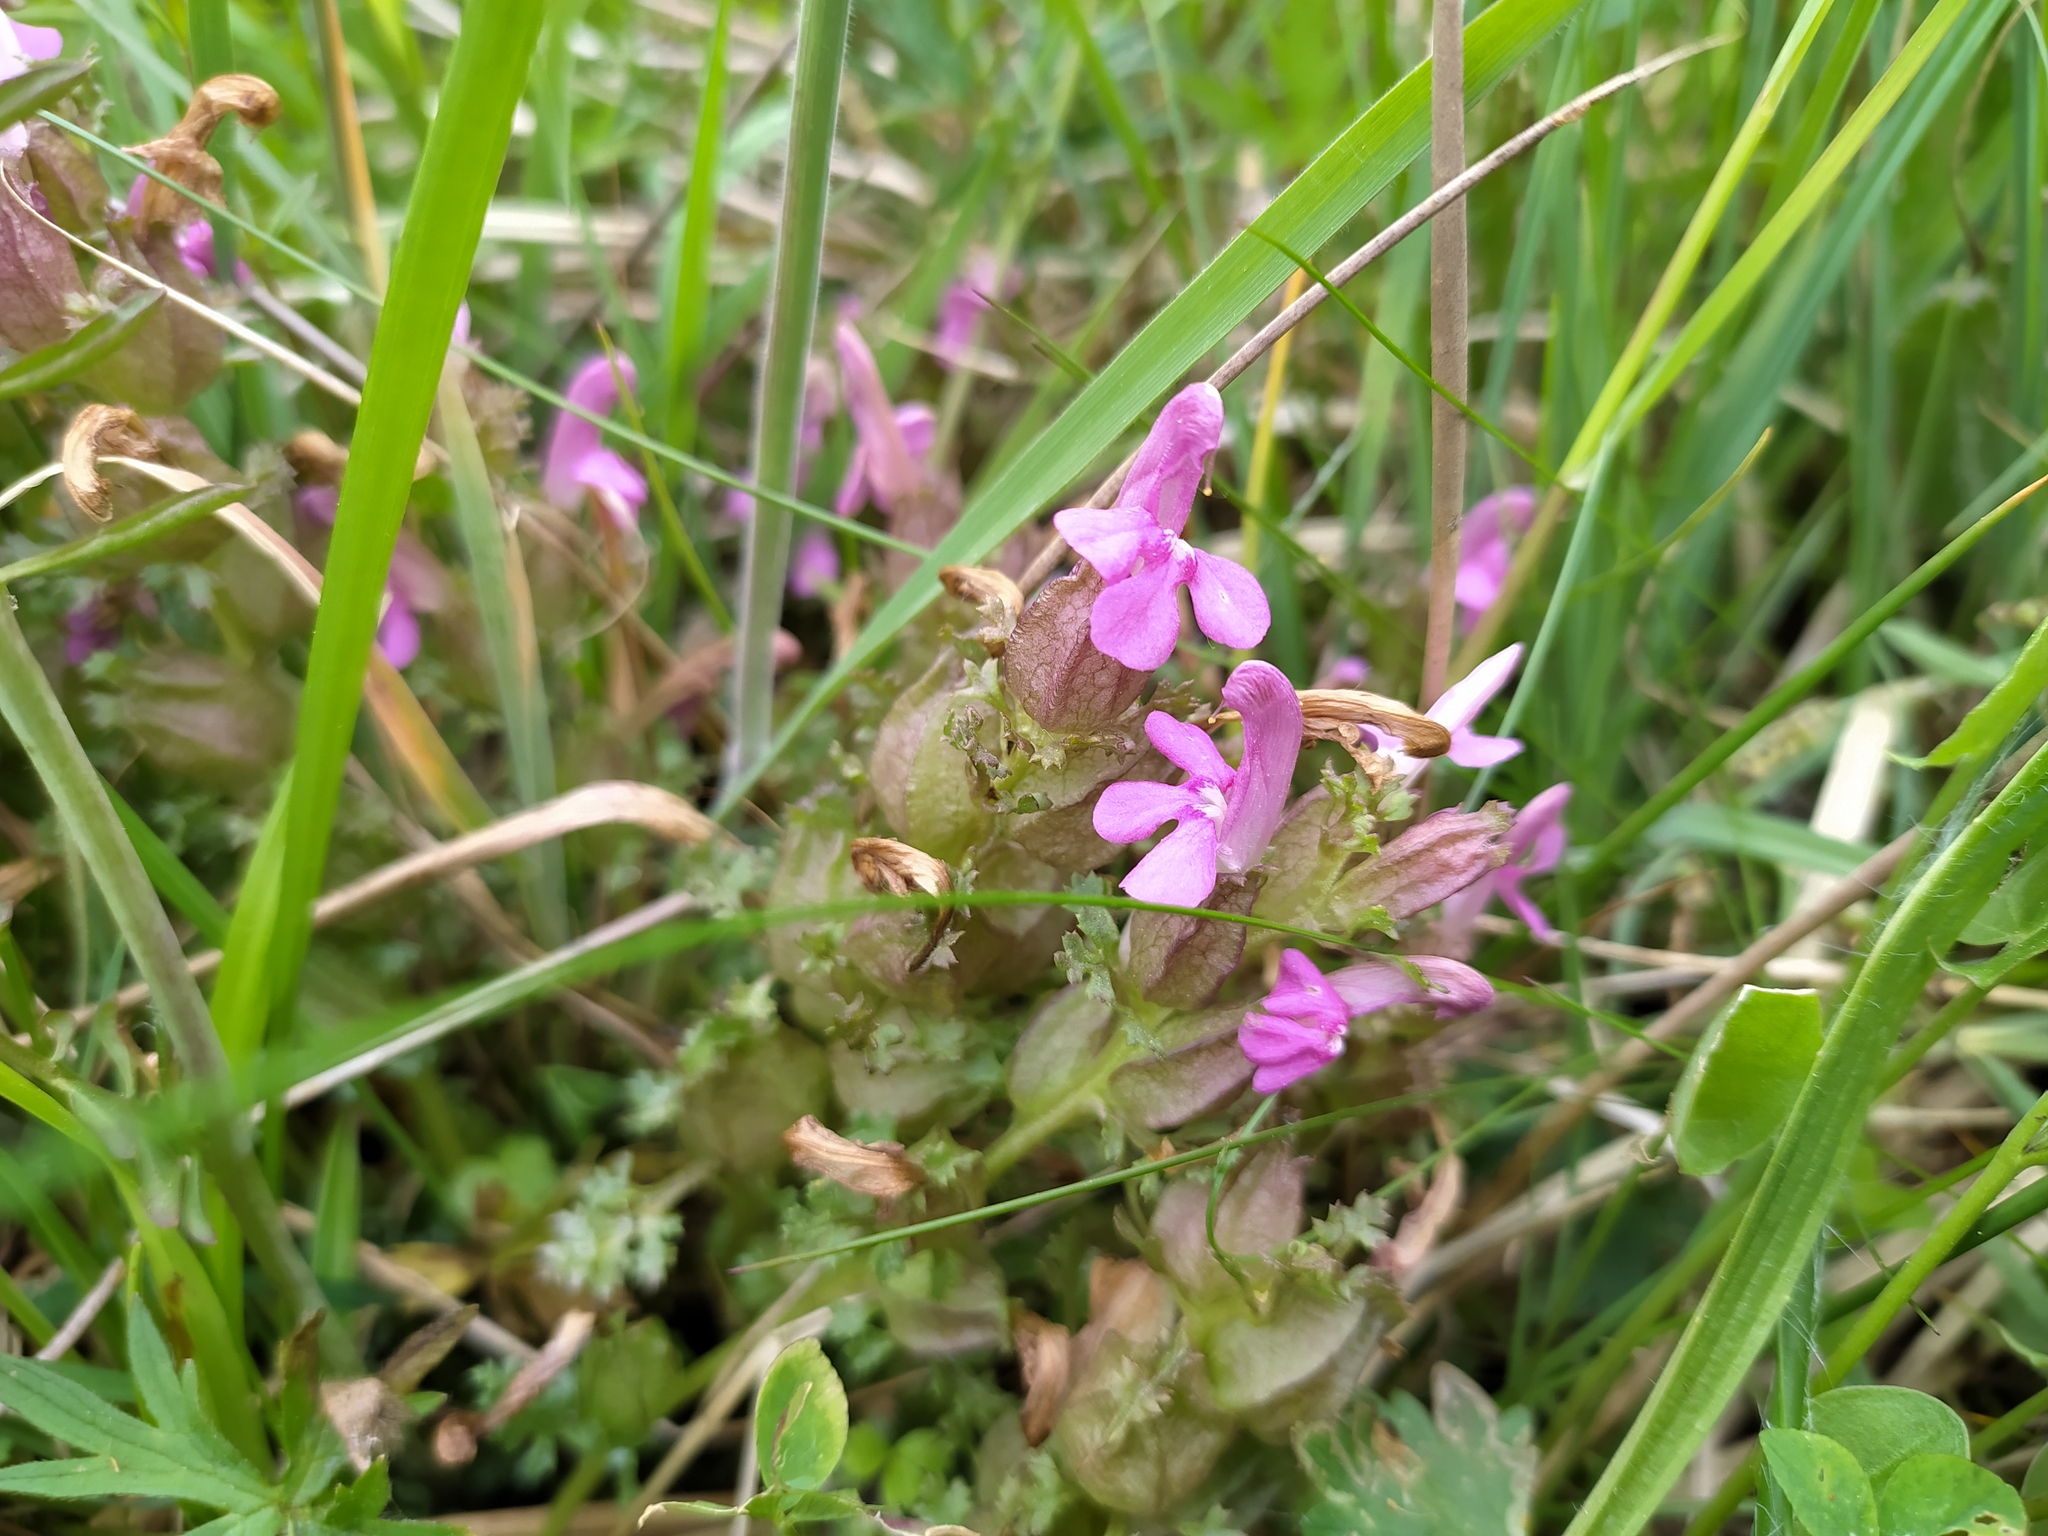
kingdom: Plantae
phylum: Tracheophyta
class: Magnoliopsida
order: Lamiales
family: Orobanchaceae
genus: Pedicularis
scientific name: Pedicularis sylvatica
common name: Lousewort
